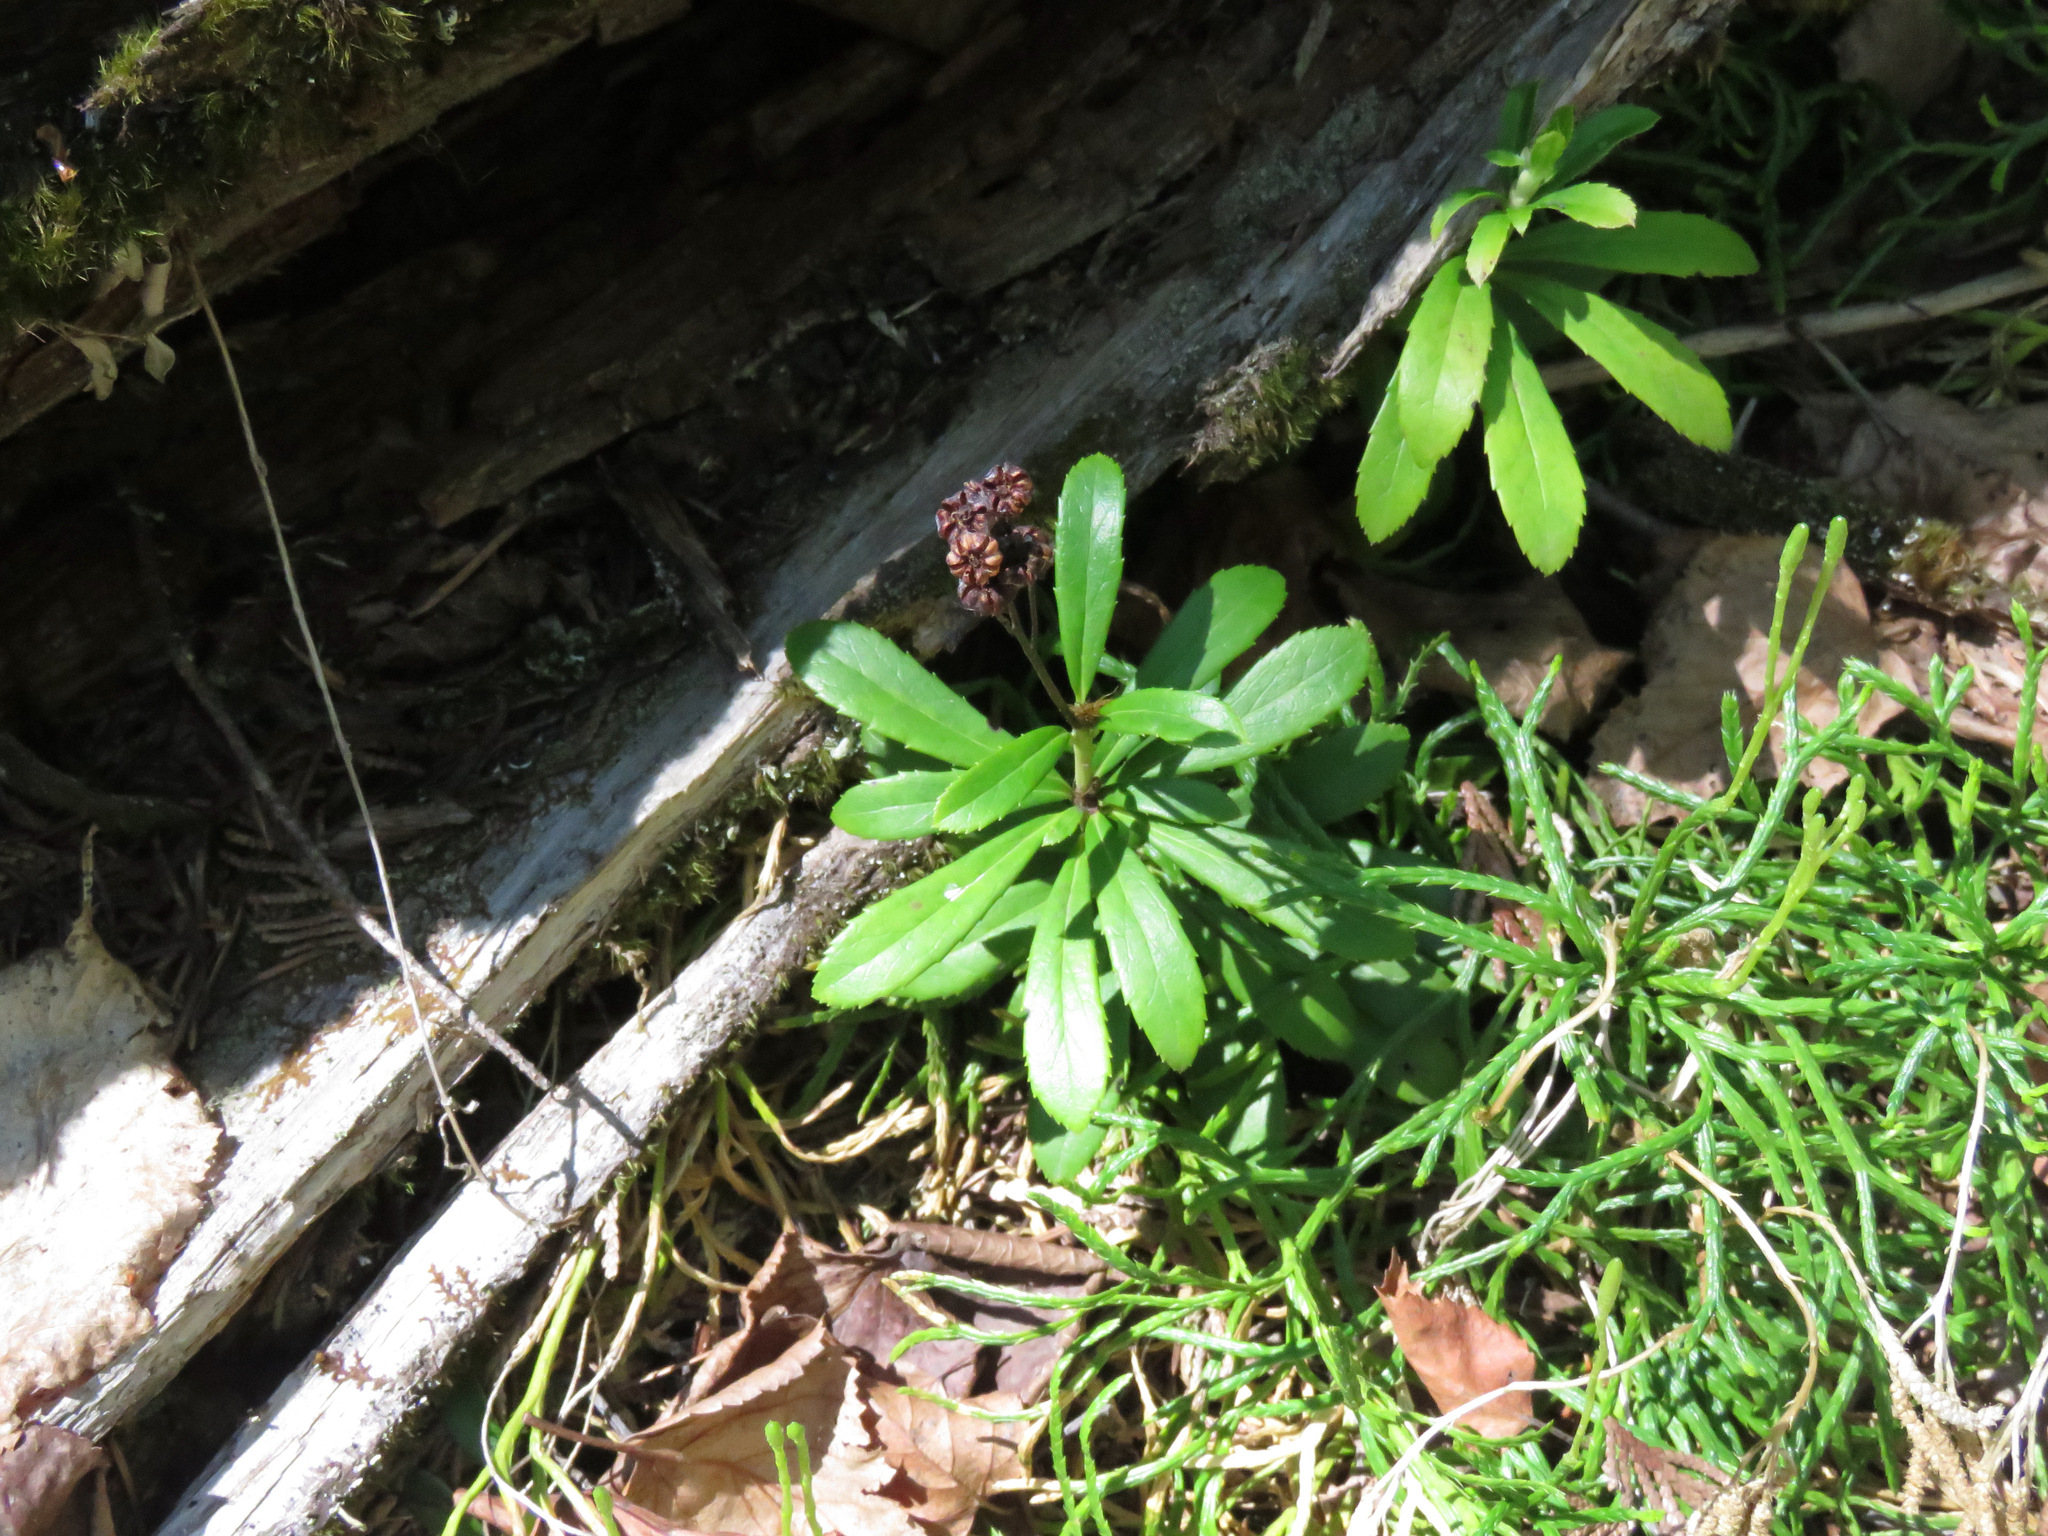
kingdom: Plantae
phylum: Tracheophyta
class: Magnoliopsida
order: Ericales
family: Ericaceae
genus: Chimaphila
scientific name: Chimaphila umbellata
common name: Pipsissewa
